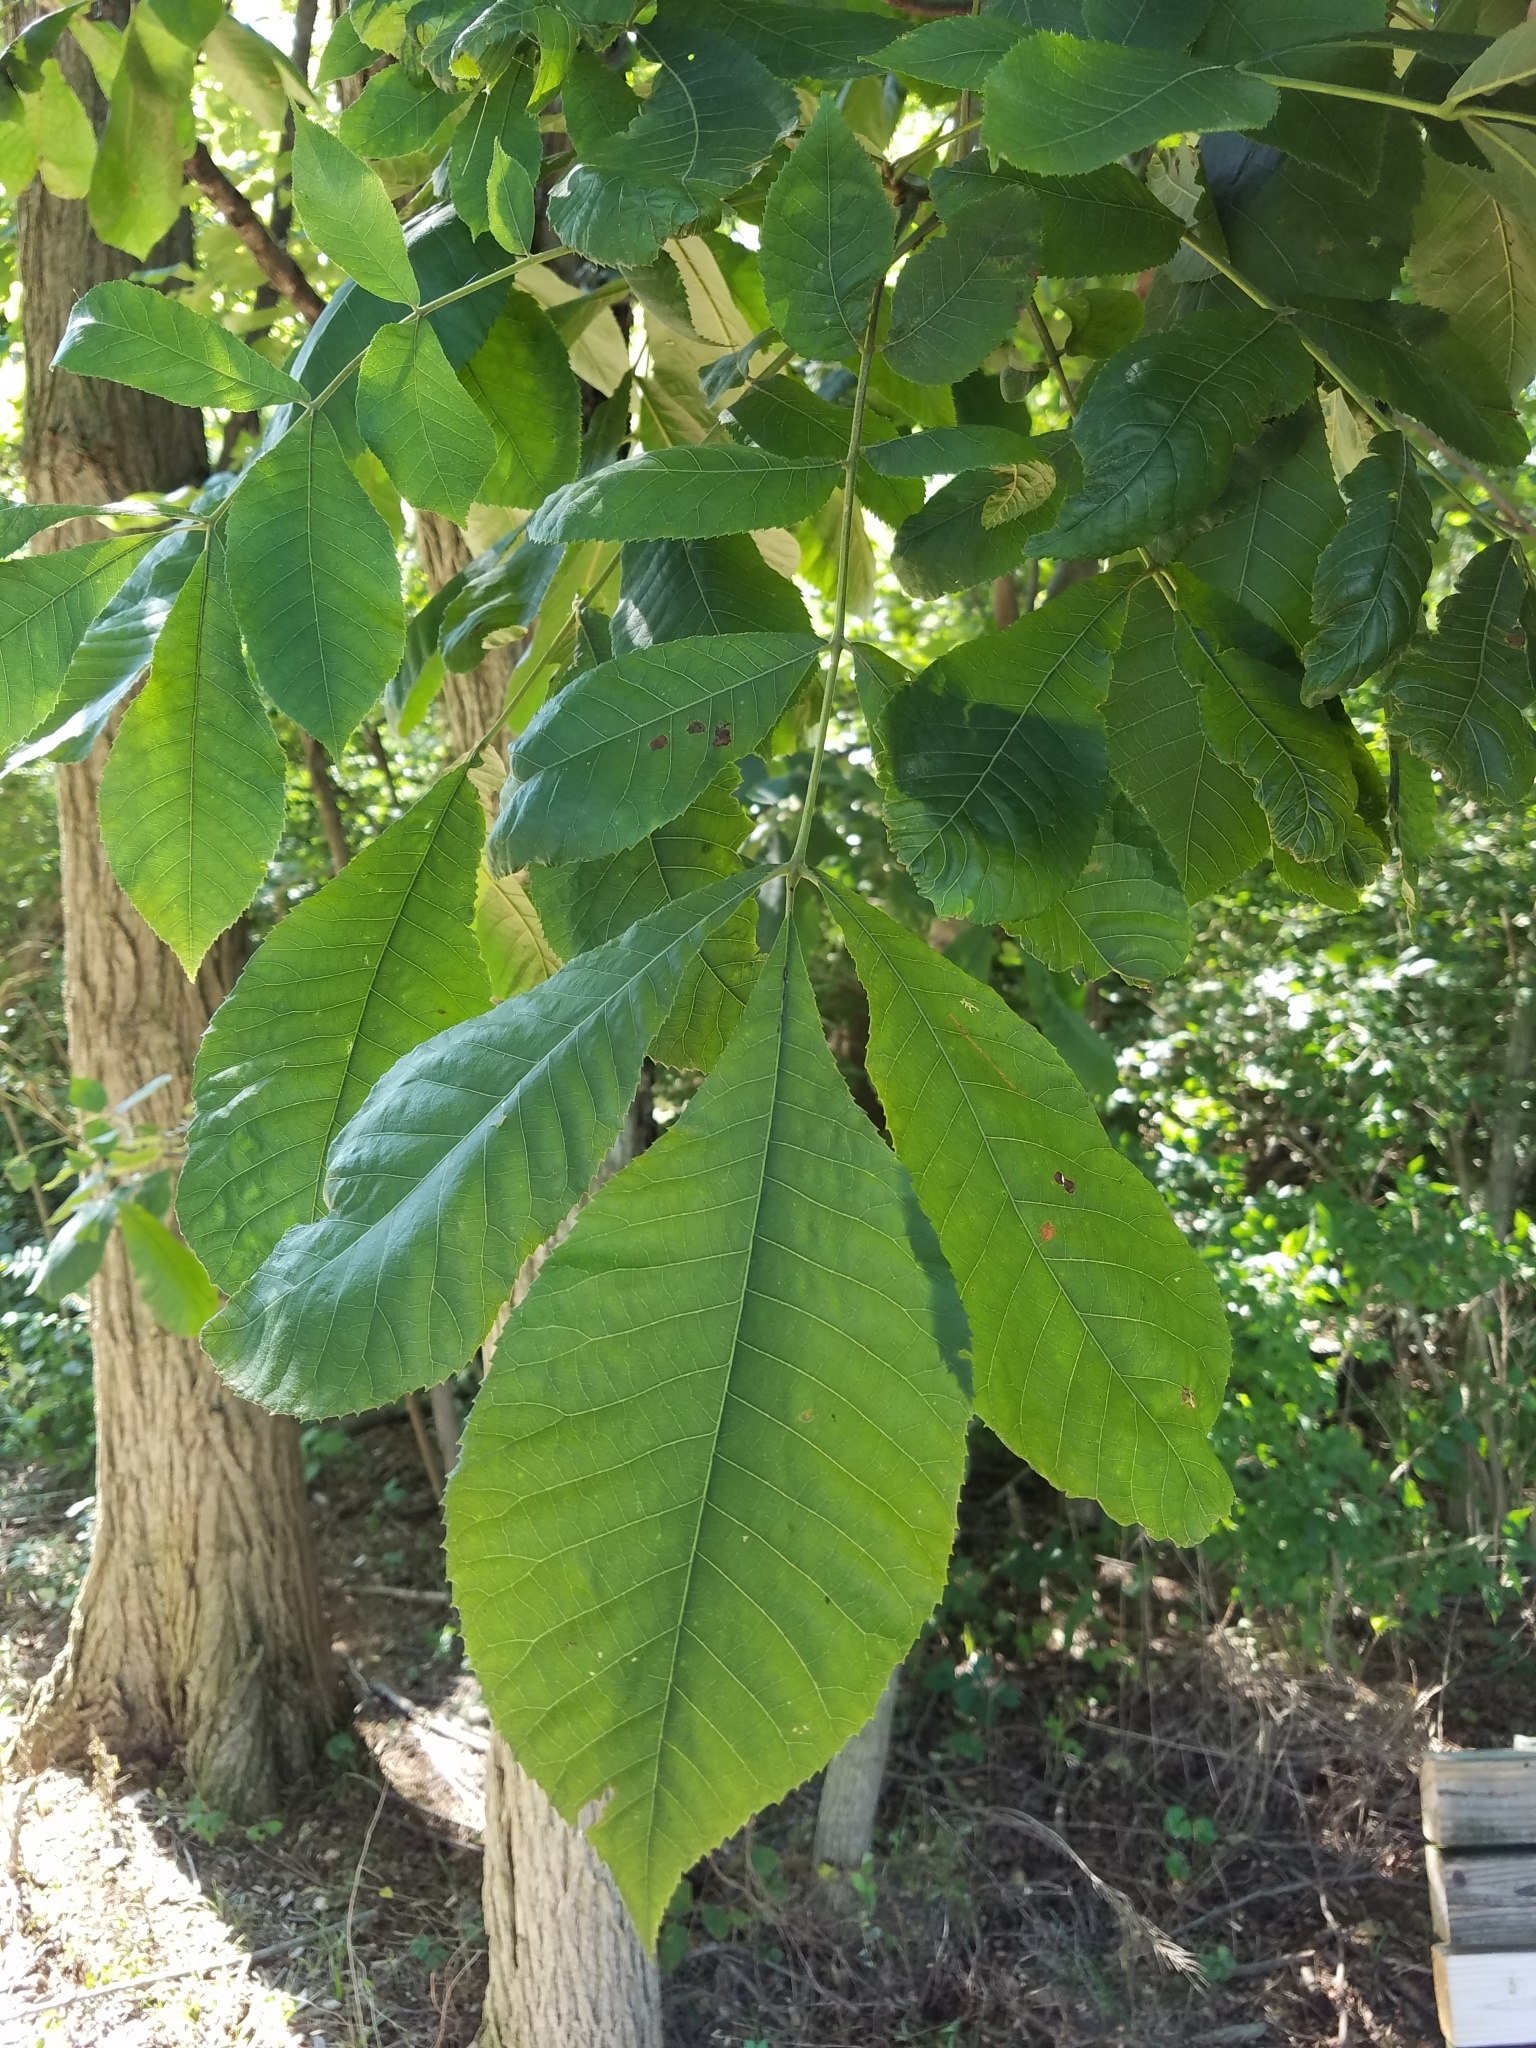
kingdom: Plantae
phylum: Tracheophyta
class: Magnoliopsida
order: Fagales
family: Juglandaceae
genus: Carya
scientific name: Carya cordiformis
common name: Bitternut hickory
